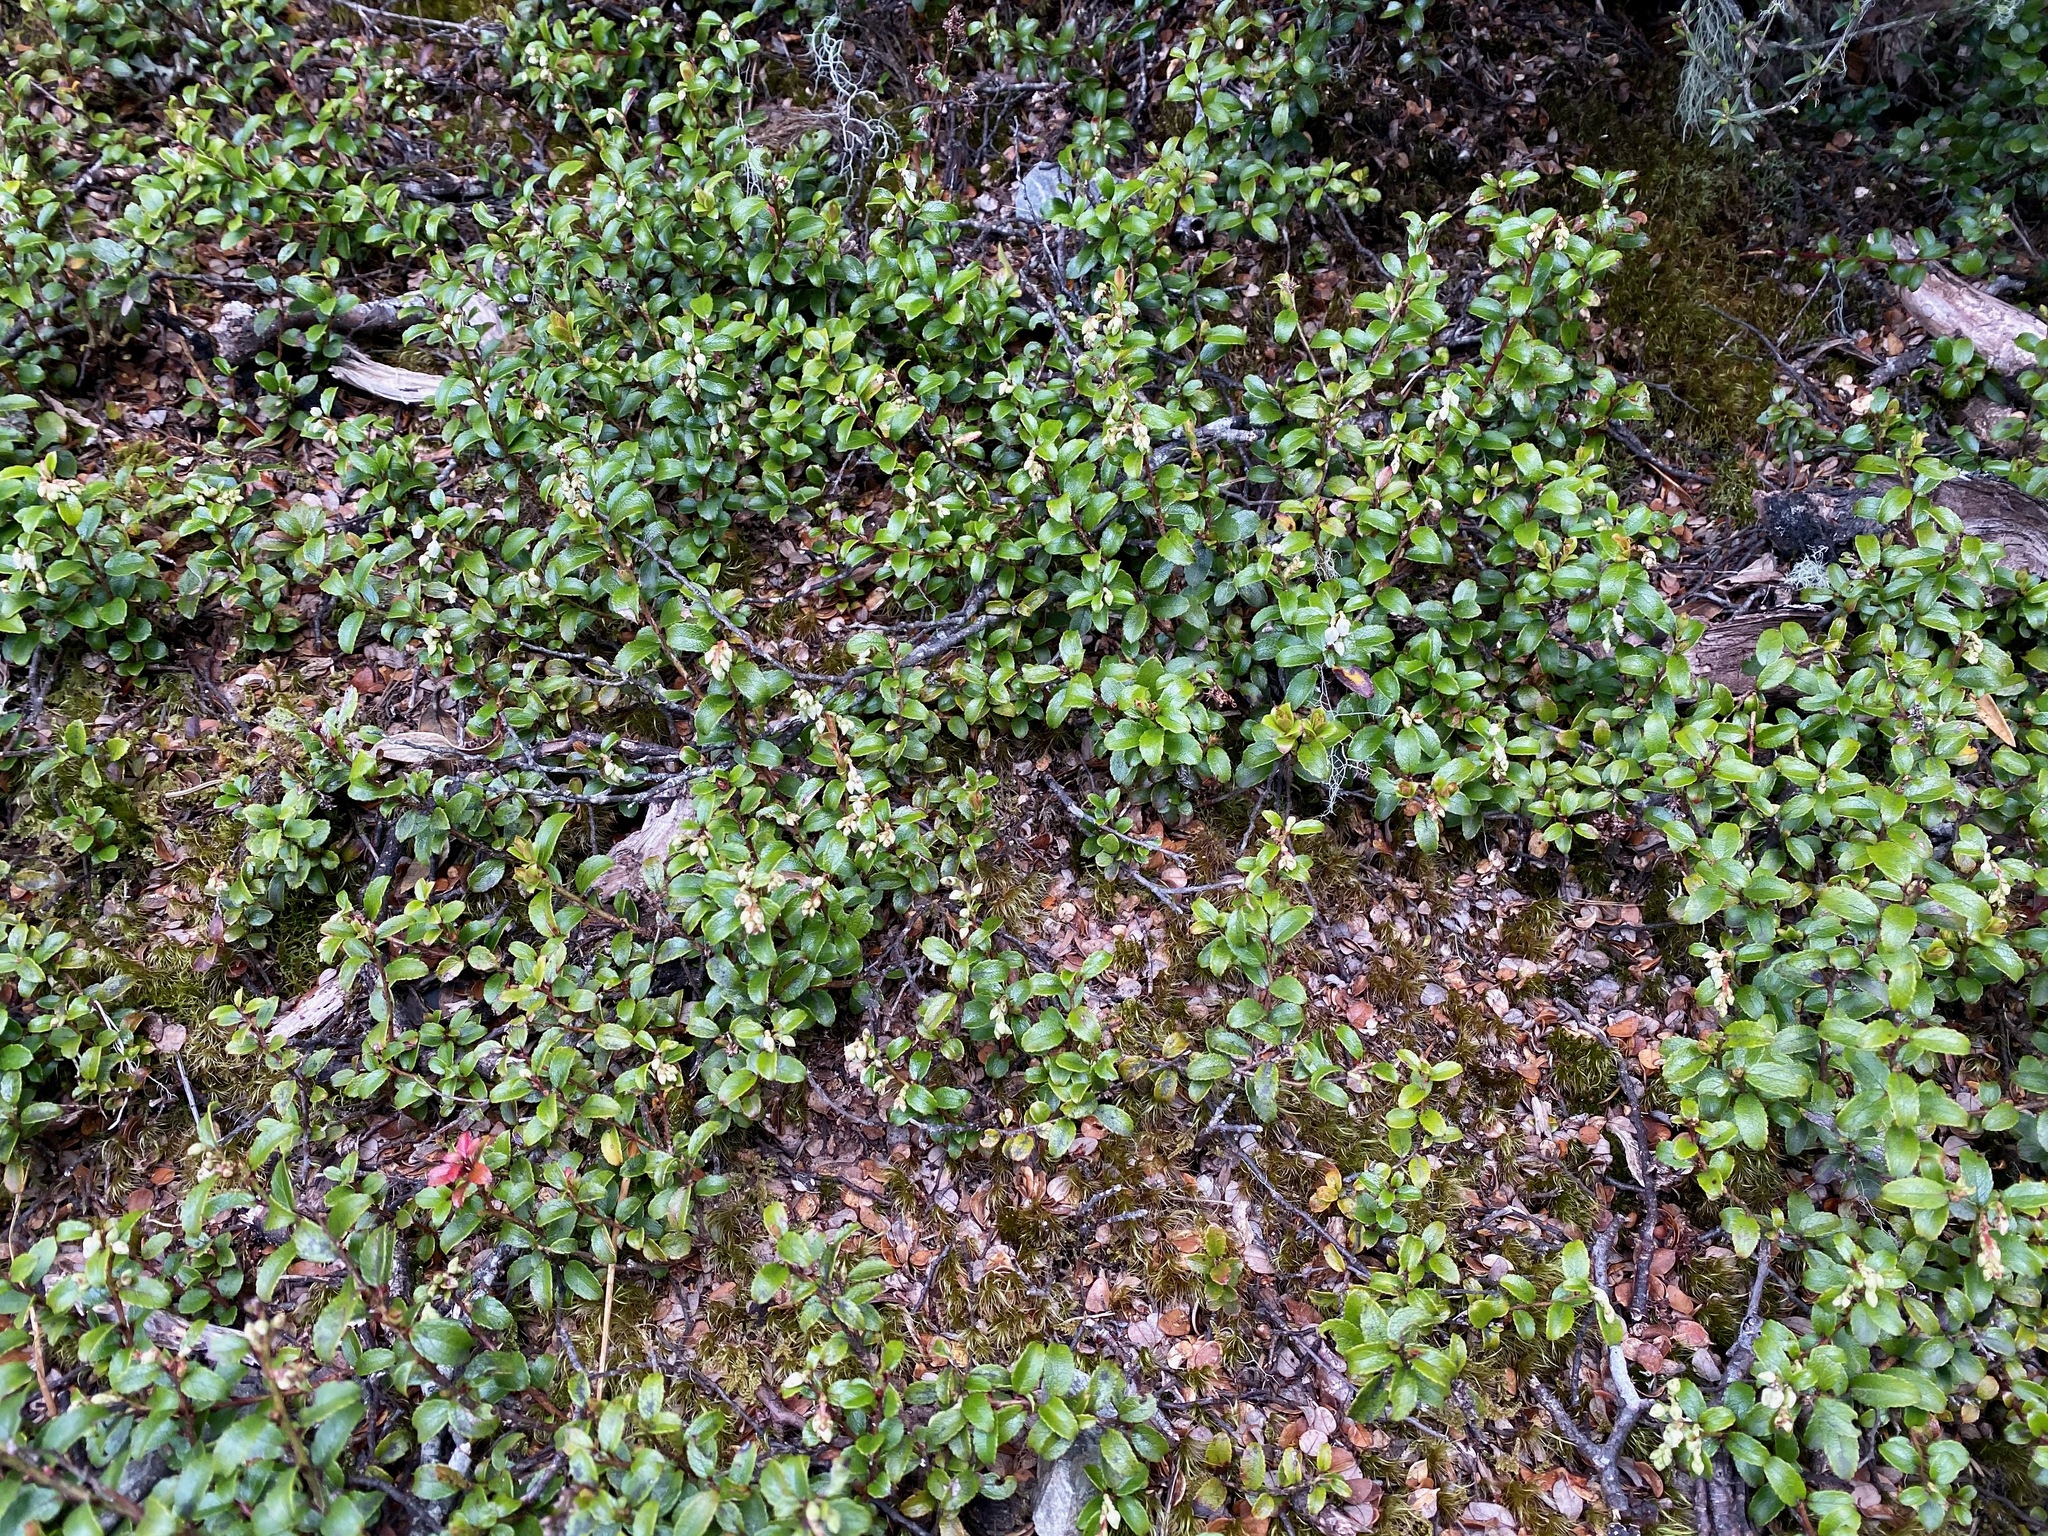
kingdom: Plantae
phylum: Tracheophyta
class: Magnoliopsida
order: Ericales
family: Ericaceae
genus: Gaultheria
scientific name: Gaultheria depressa
